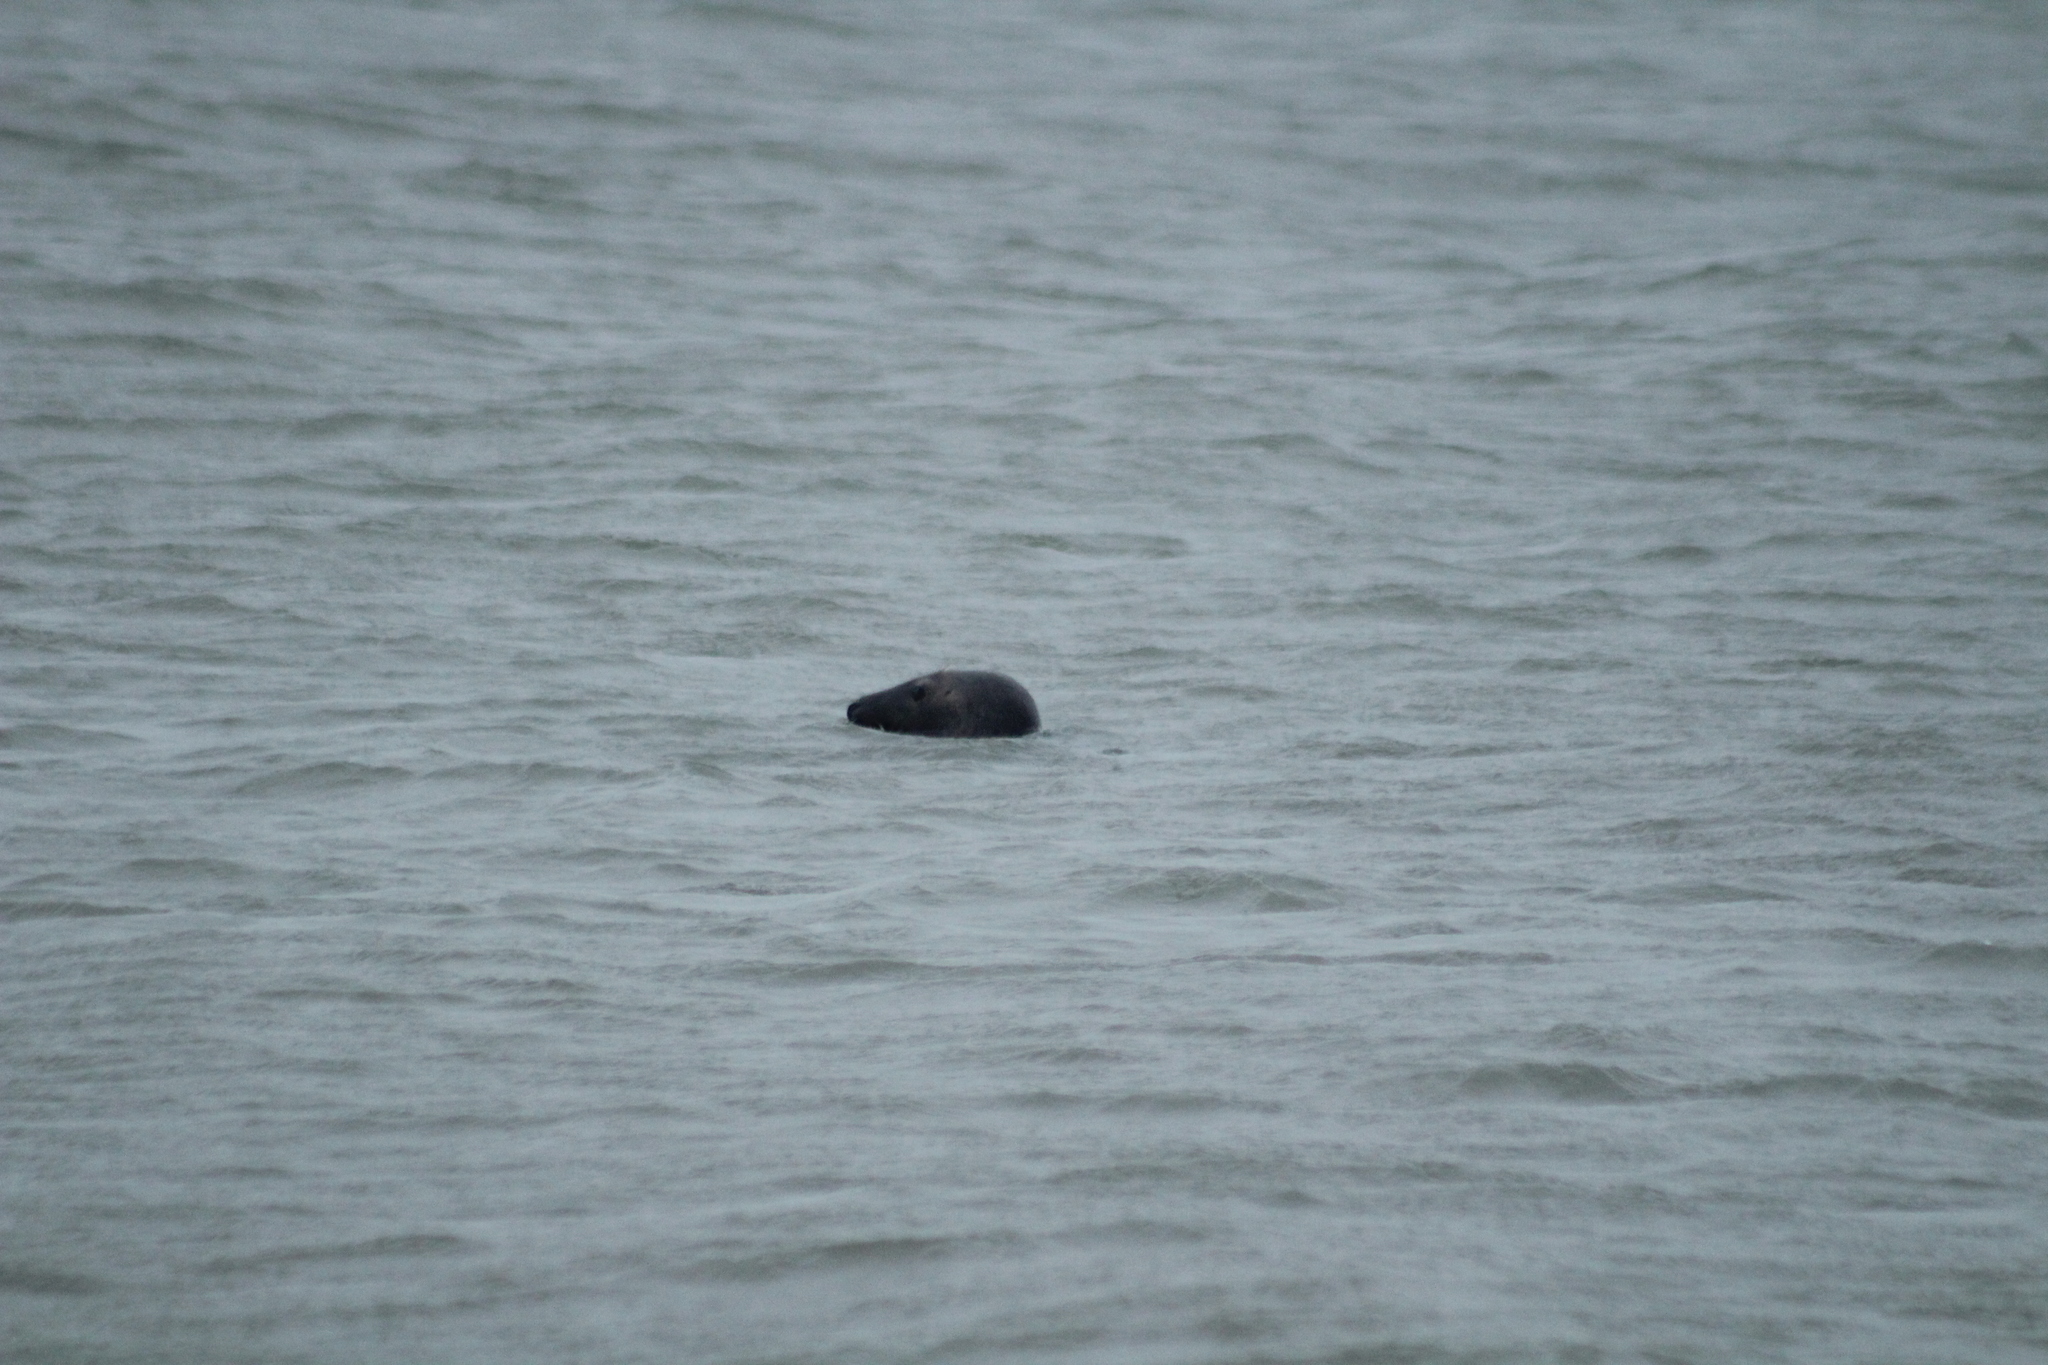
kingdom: Animalia
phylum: Chordata
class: Mammalia
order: Carnivora
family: Phocidae
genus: Halichoerus
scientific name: Halichoerus grypus
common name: Grey seal
